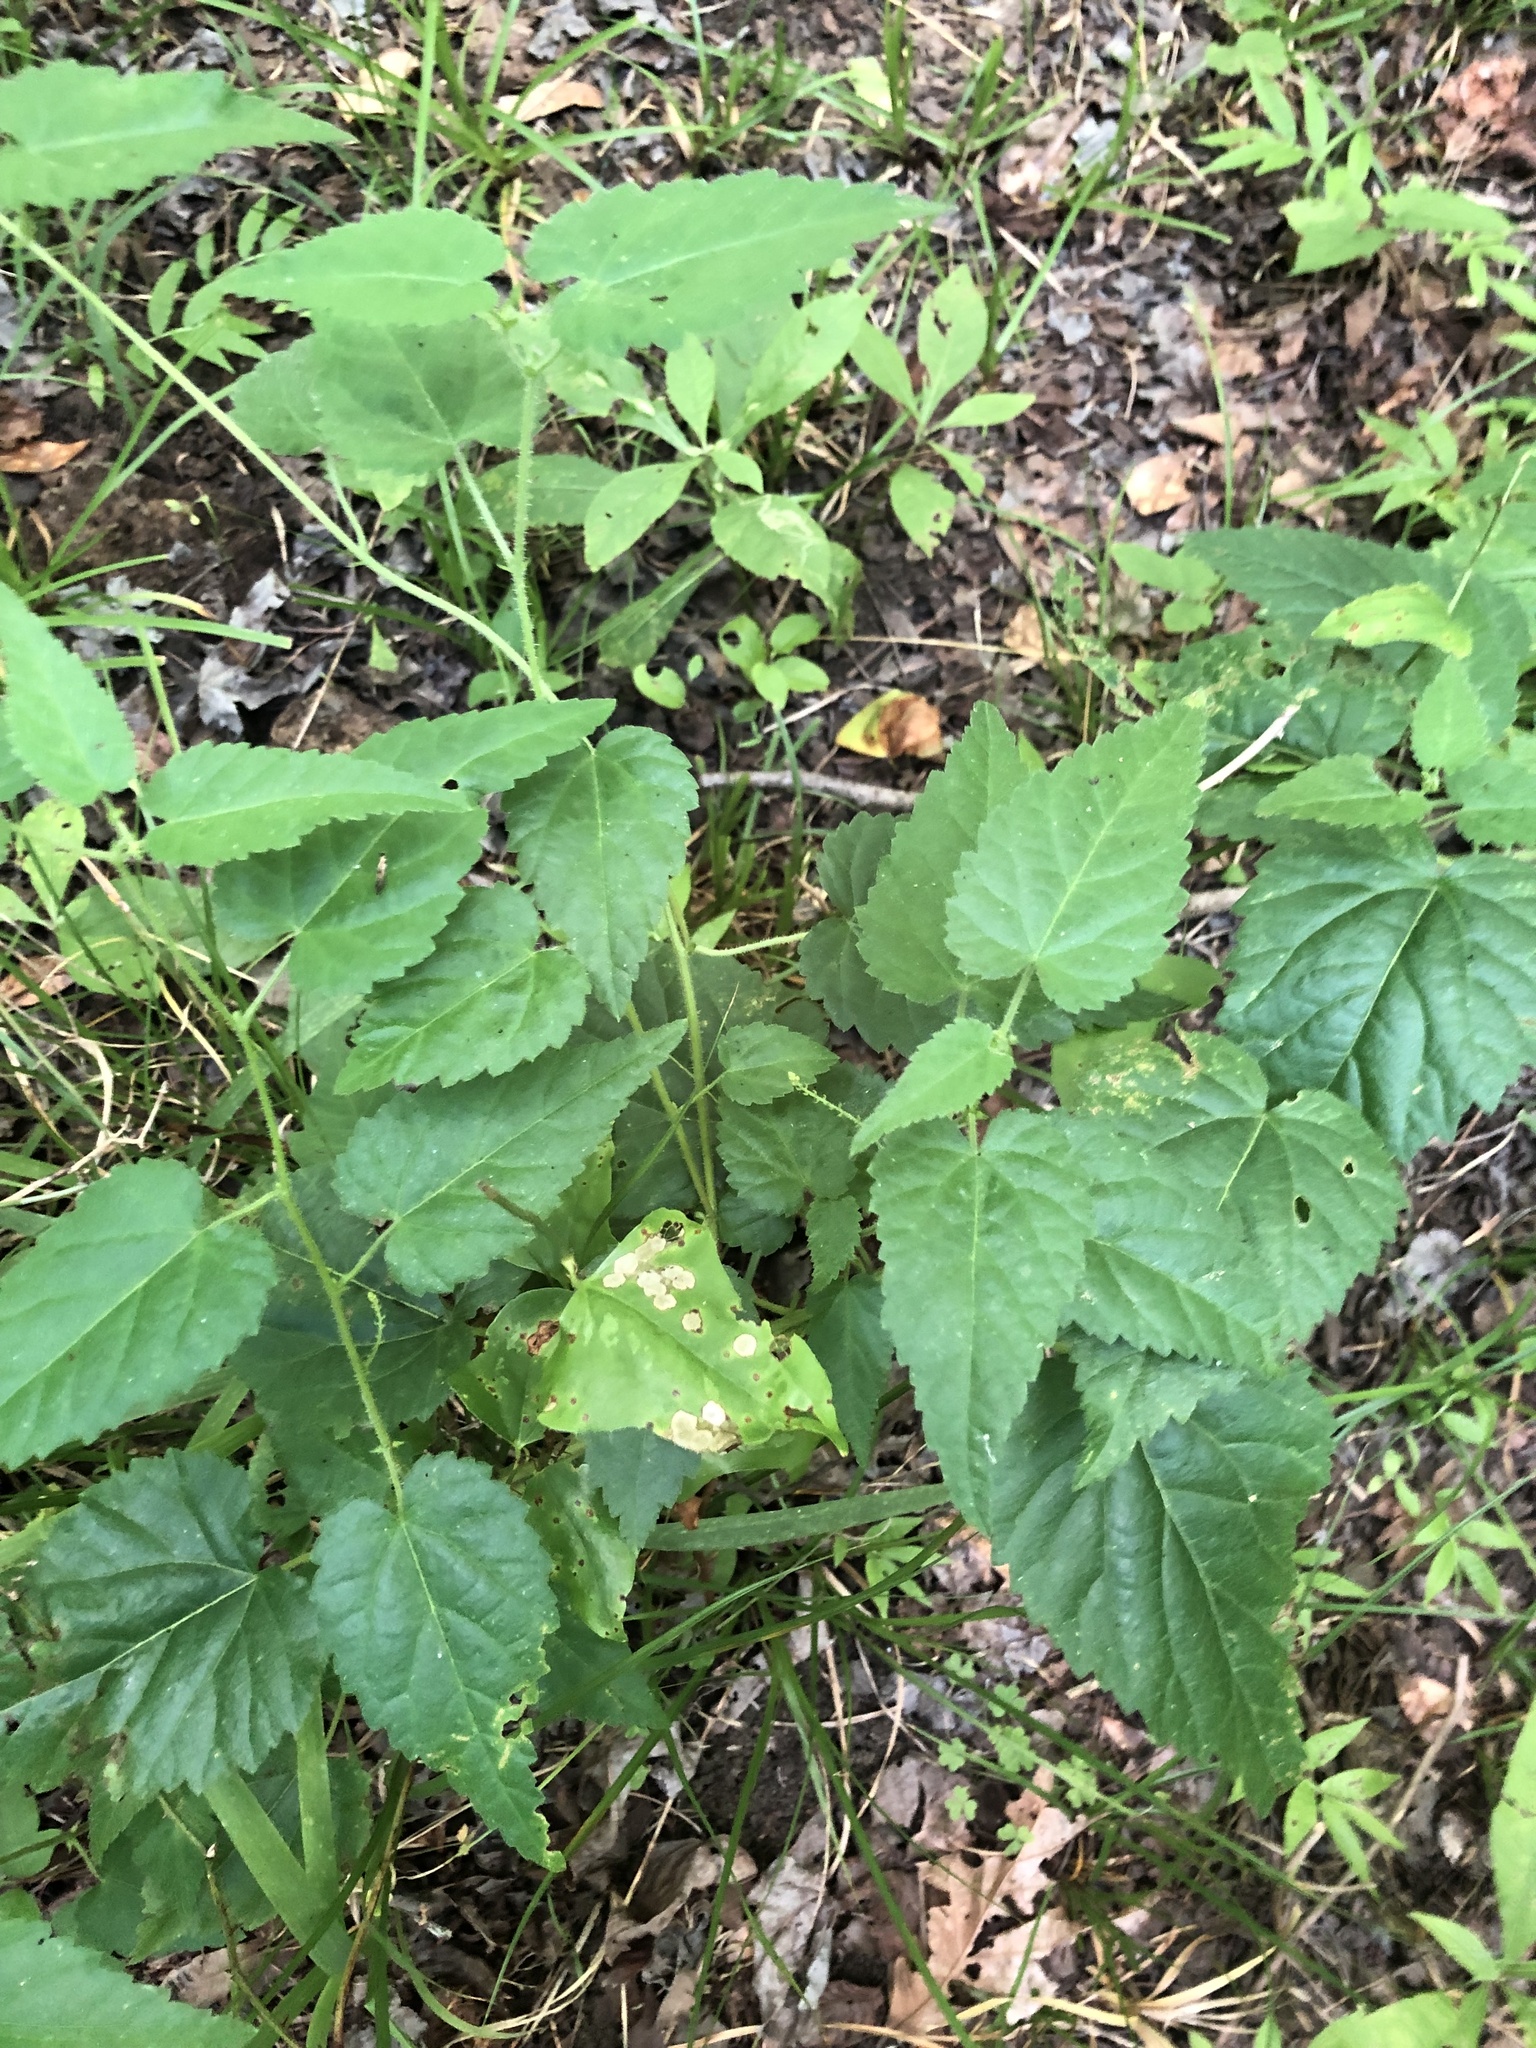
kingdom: Plantae
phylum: Tracheophyta
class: Magnoliopsida
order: Malpighiales
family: Euphorbiaceae
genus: Tragia
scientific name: Tragia cordata
